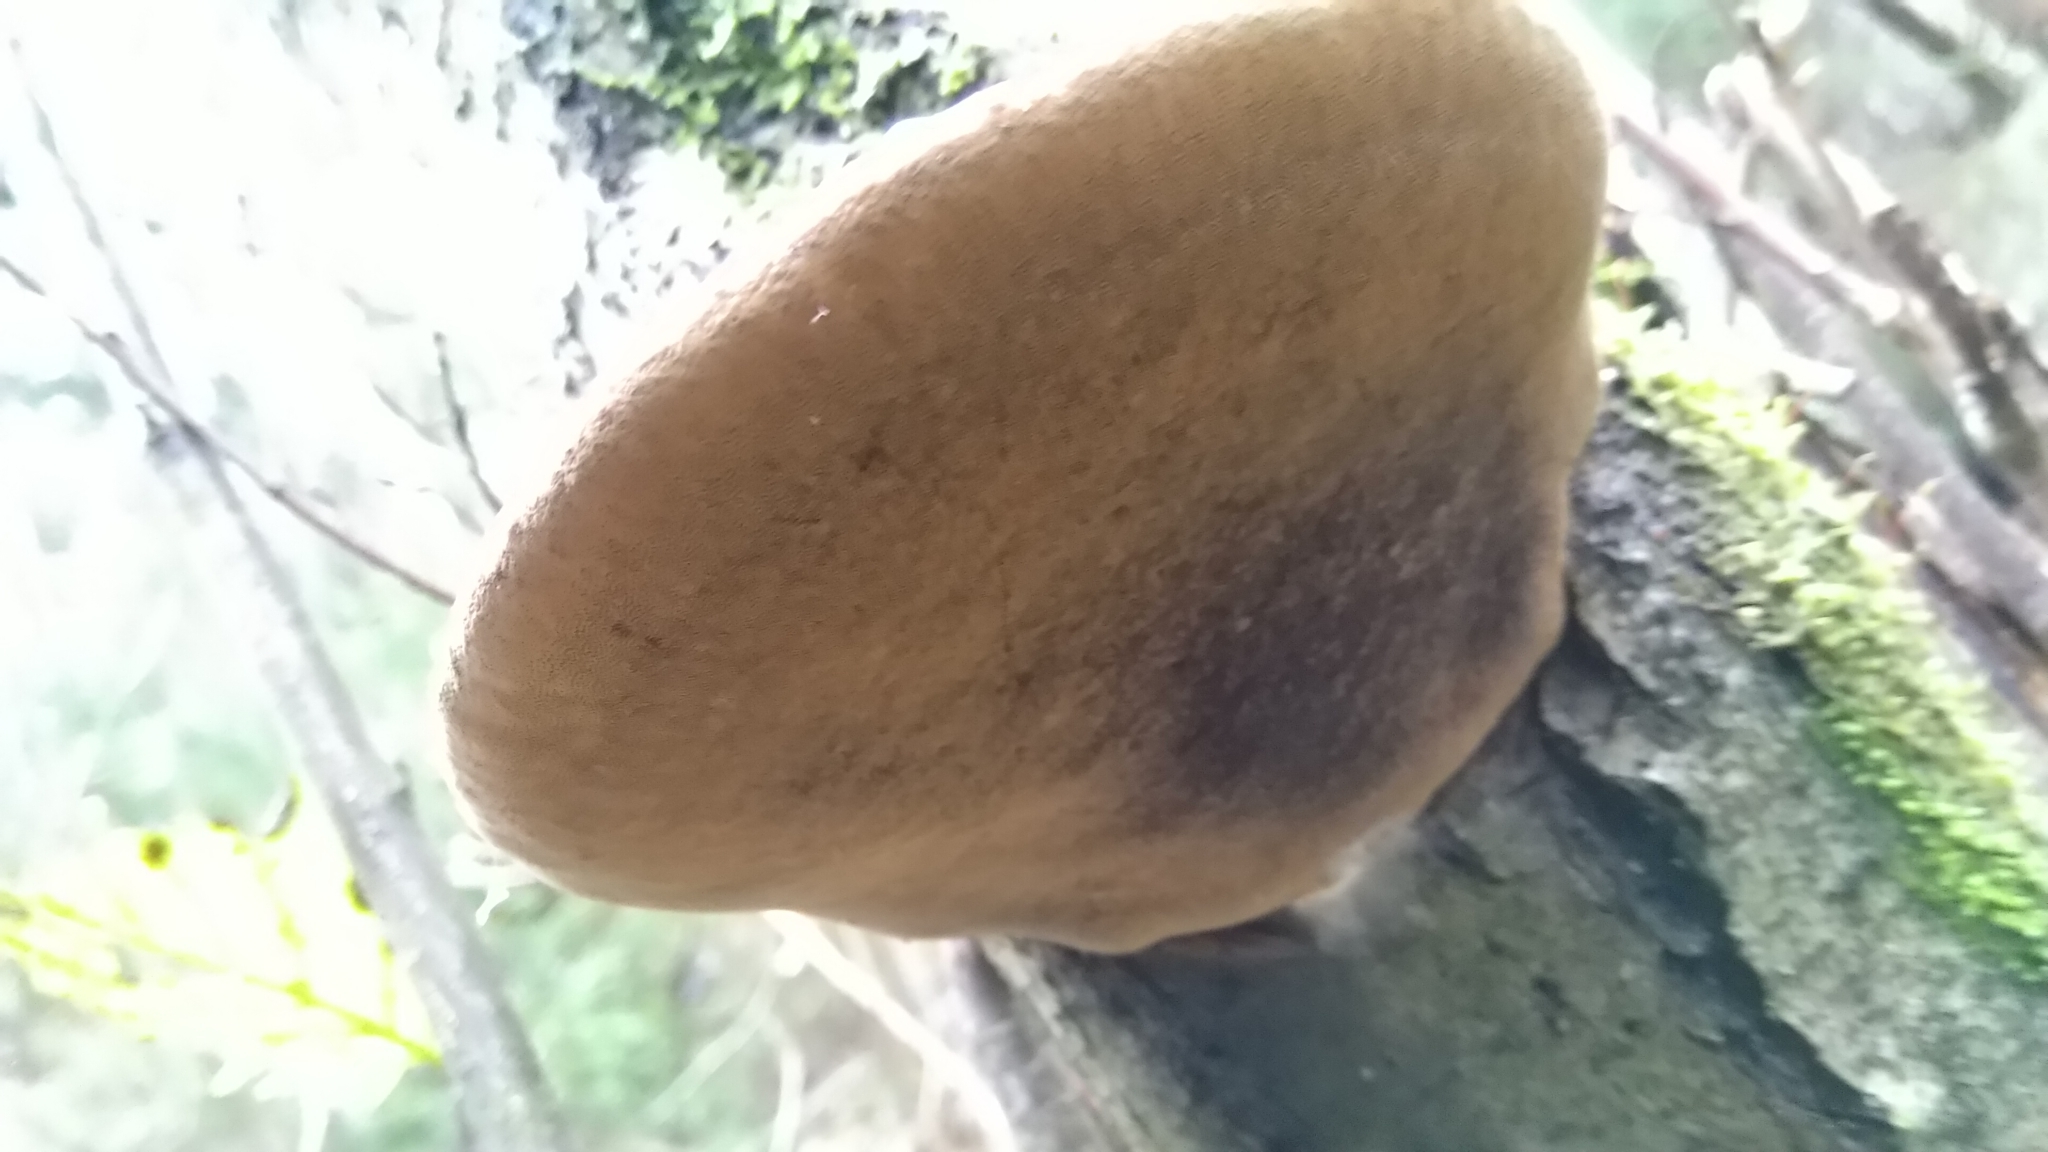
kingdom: Fungi
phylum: Basidiomycota
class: Agaricomycetes
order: Hymenochaetales
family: Hymenochaetaceae
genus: Phellinus
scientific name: Phellinus igniarius
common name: Willow bracket
